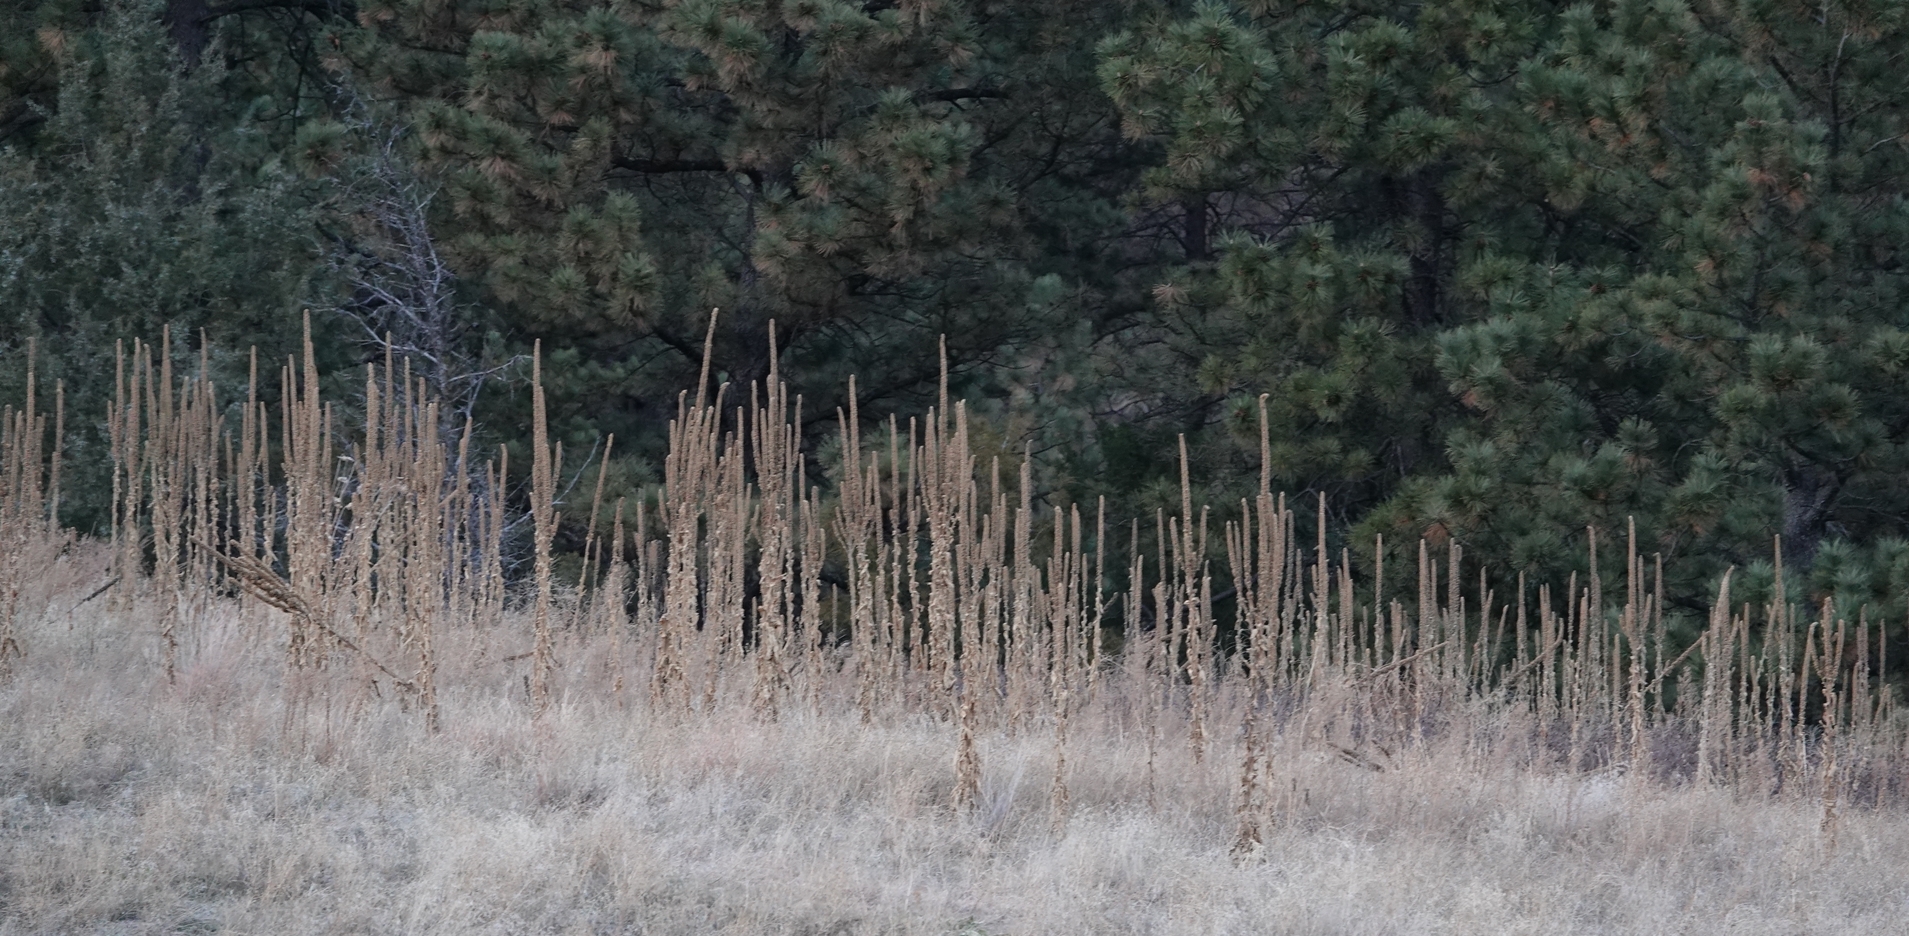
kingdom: Plantae
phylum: Tracheophyta
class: Magnoliopsida
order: Lamiales
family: Scrophulariaceae
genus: Verbascum
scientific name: Verbascum thapsus
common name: Common mullein
